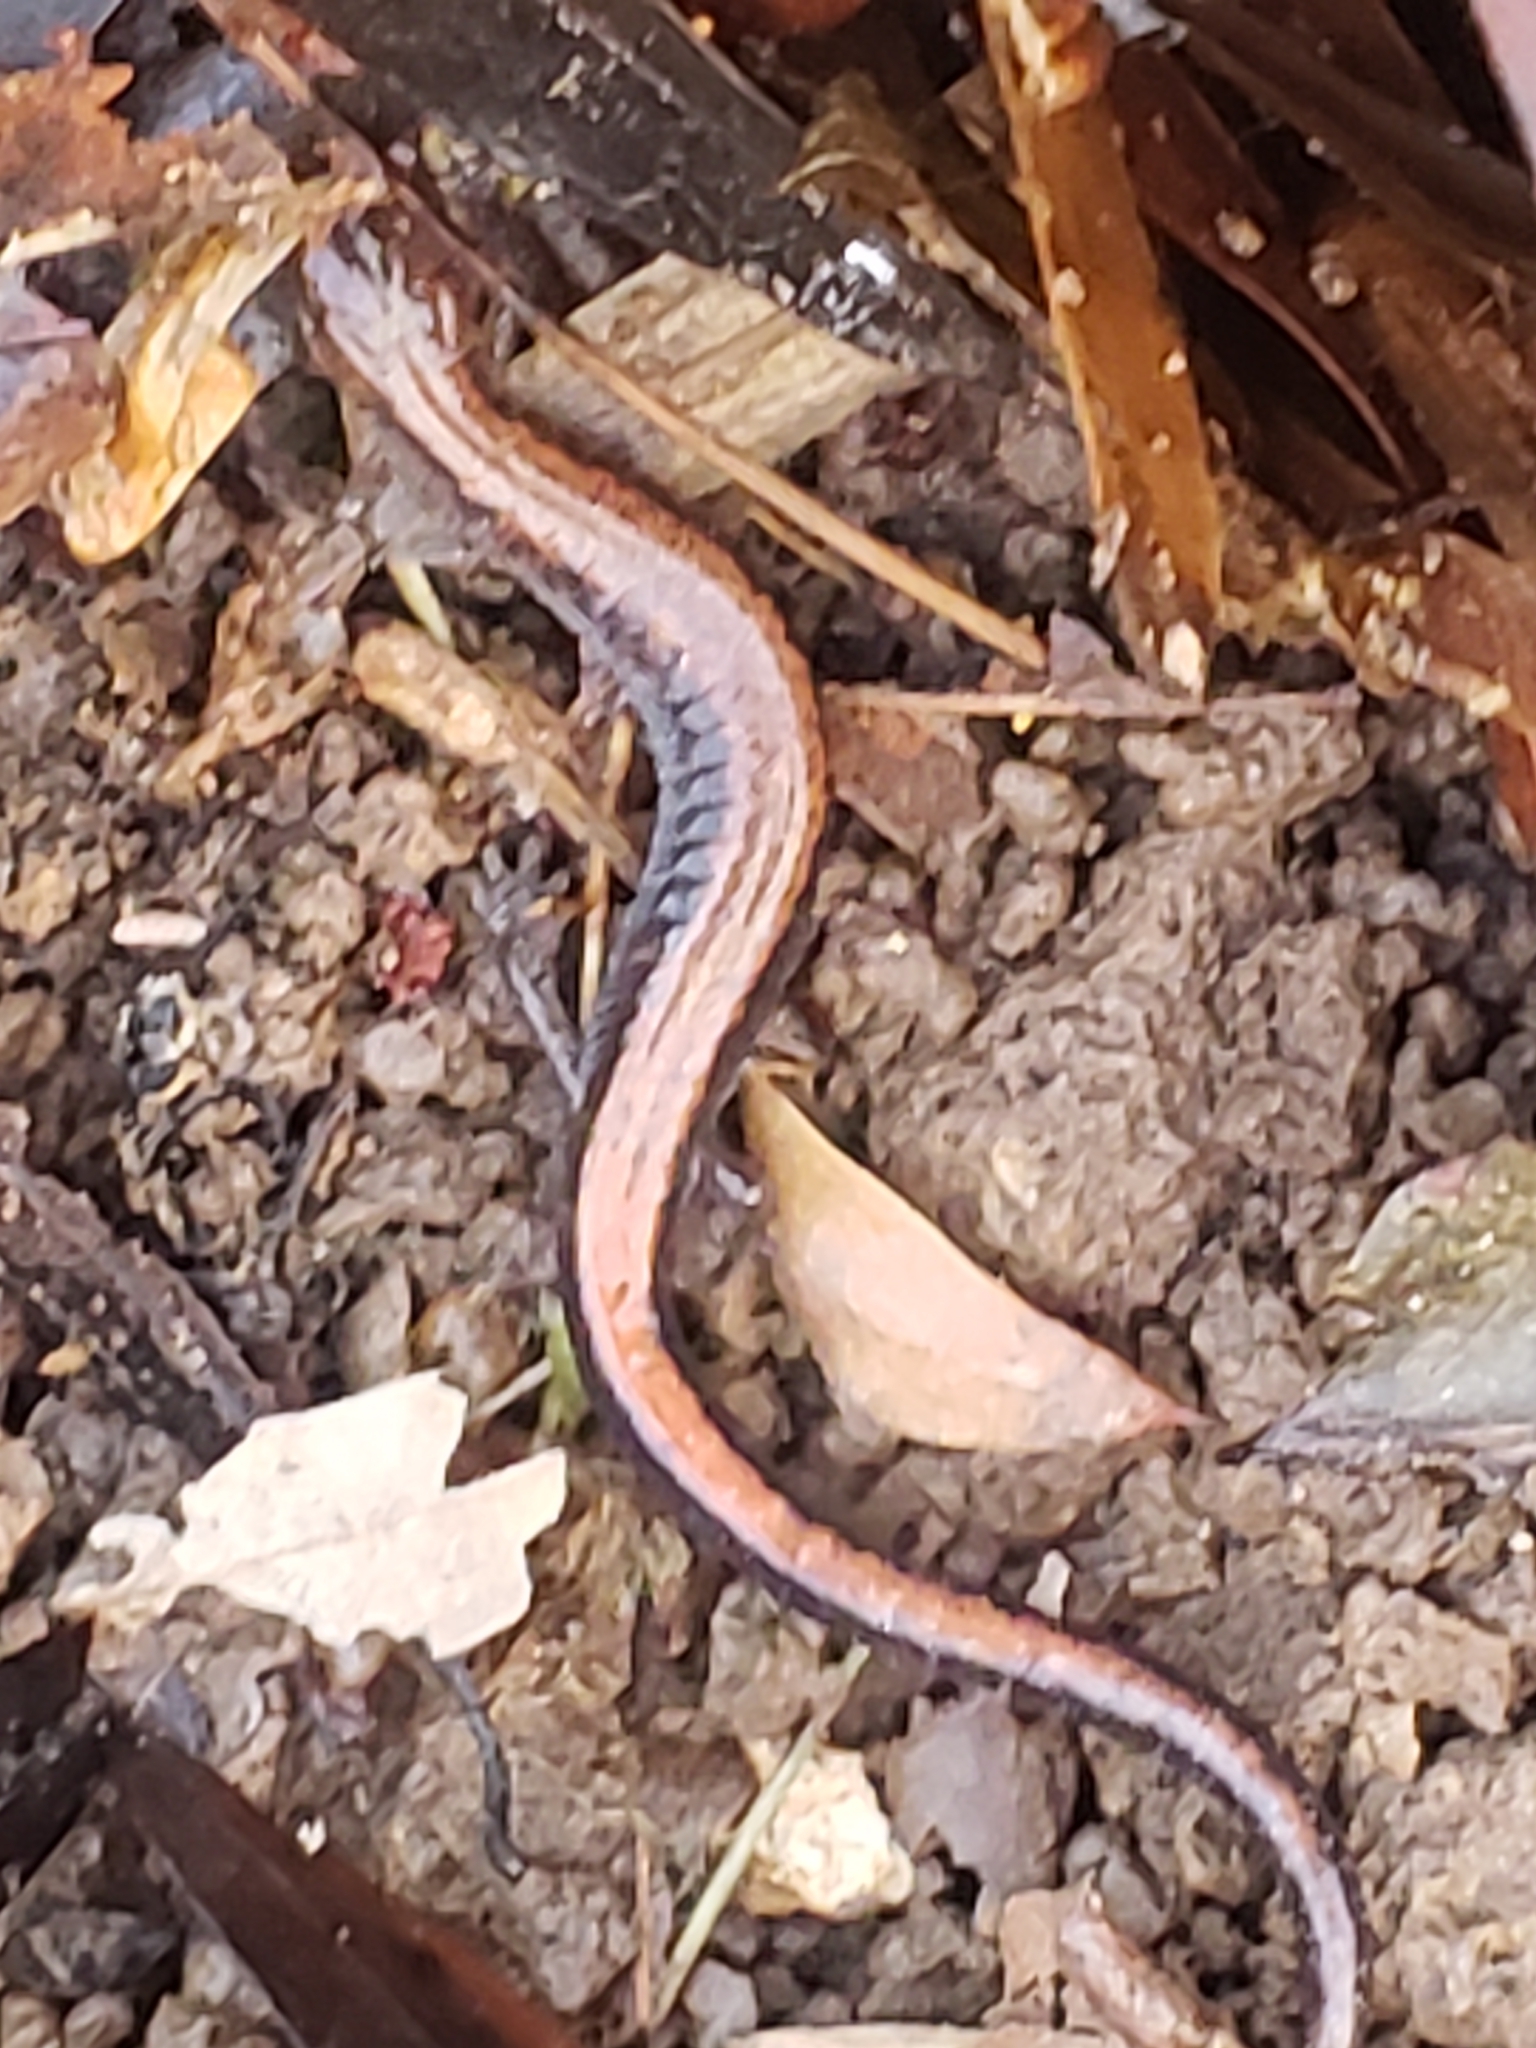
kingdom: Animalia
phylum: Chordata
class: Amphibia
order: Caudata
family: Plethodontidae
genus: Plethodon
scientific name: Plethodon cinereus
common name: Redback salamander
